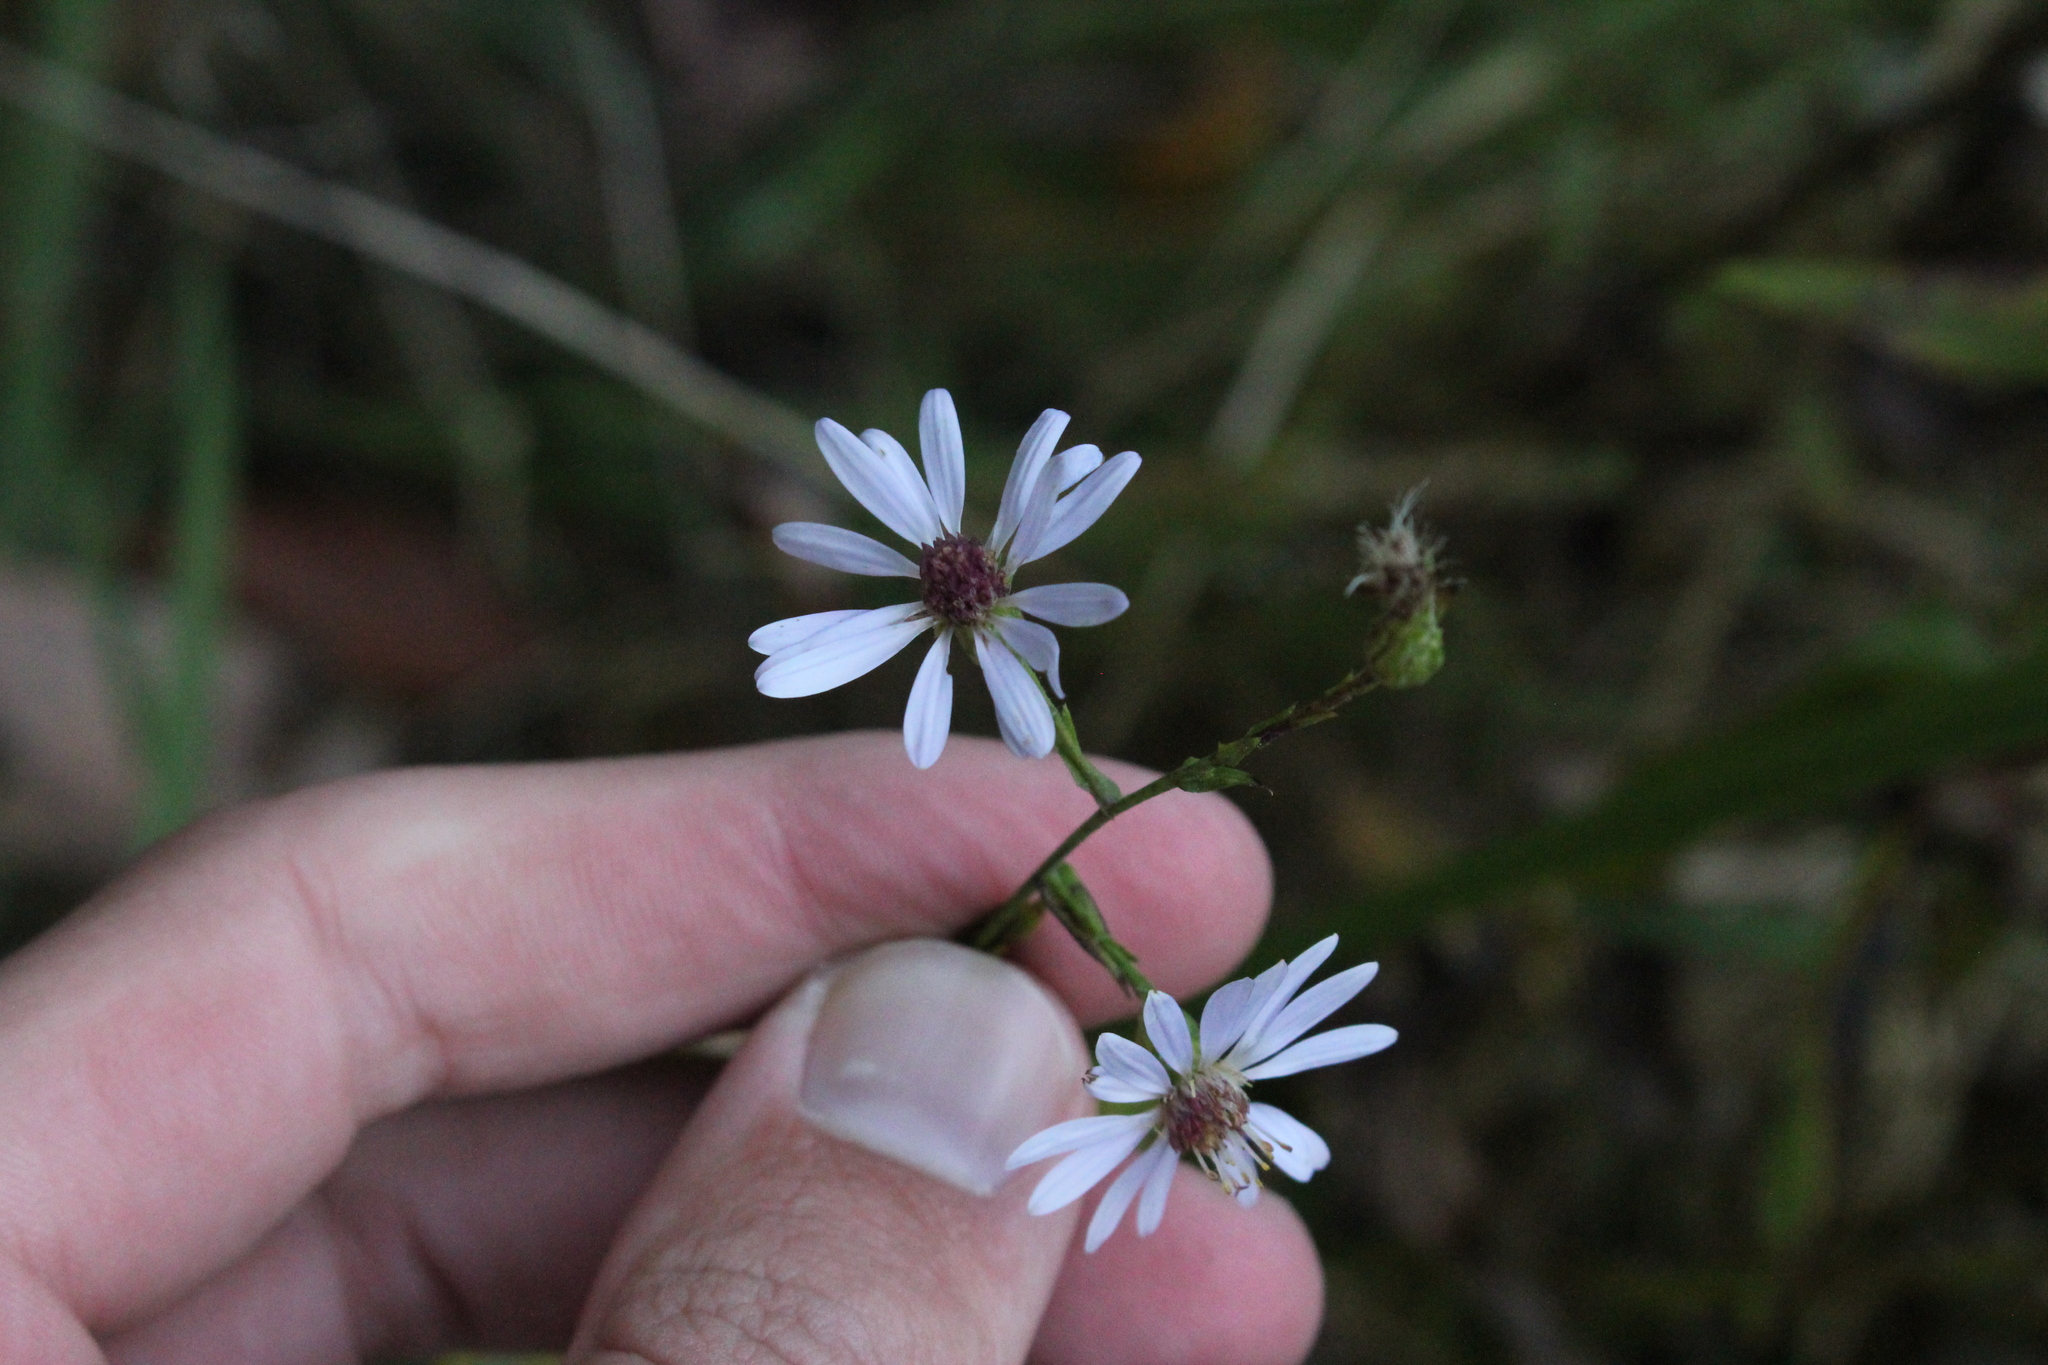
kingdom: Plantae
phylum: Tracheophyta
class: Magnoliopsida
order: Asterales
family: Asteraceae
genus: Symphyotrichum
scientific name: Symphyotrichum laeve
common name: Glaucous aster
